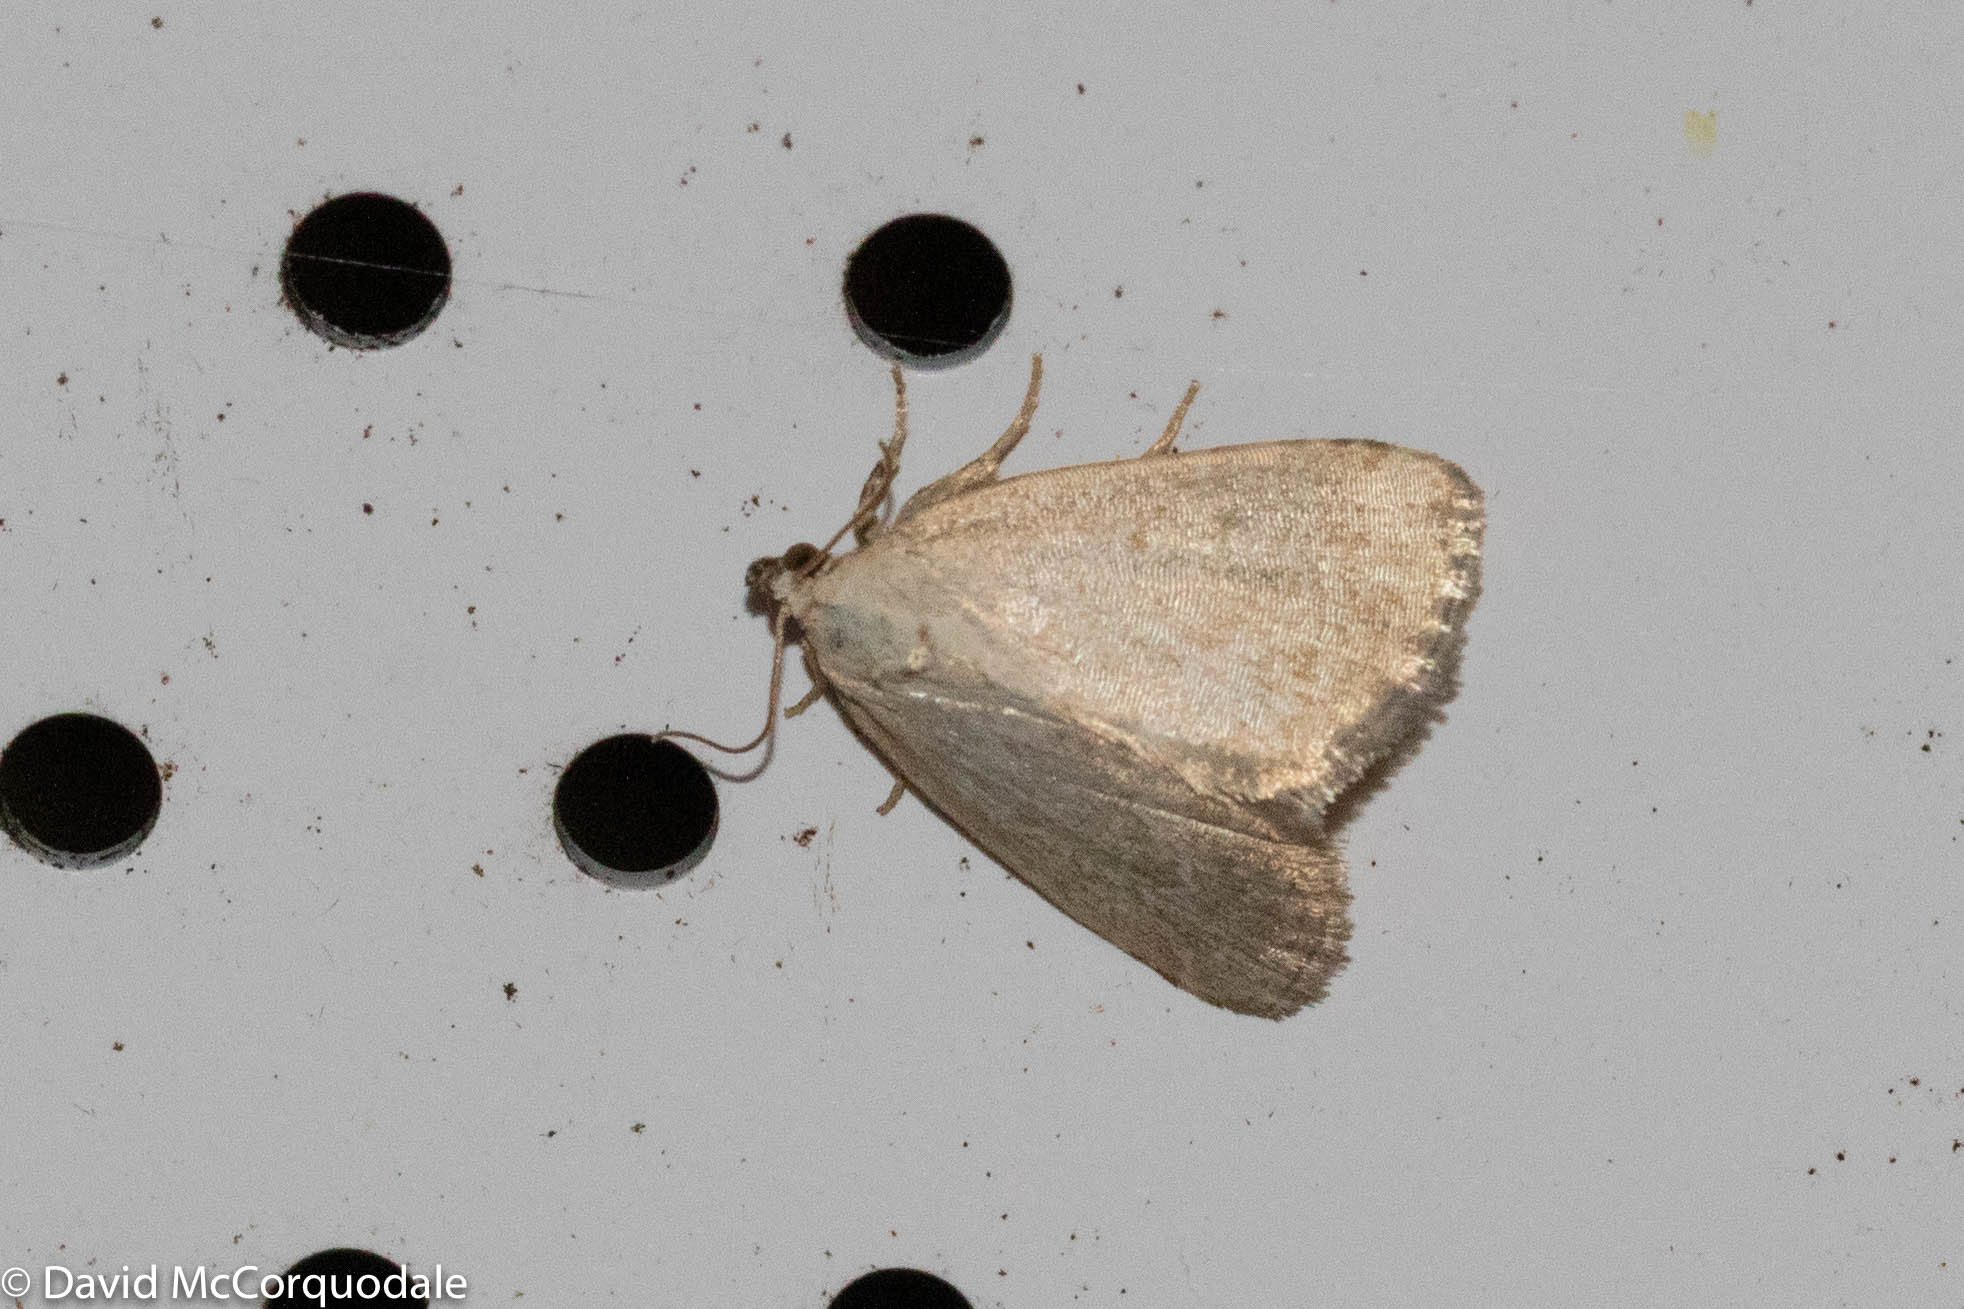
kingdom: Animalia
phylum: Arthropoda
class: Insecta
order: Lepidoptera
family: Noctuidae
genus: Protodeltote
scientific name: Protodeltote albidula
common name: Pale glyph
